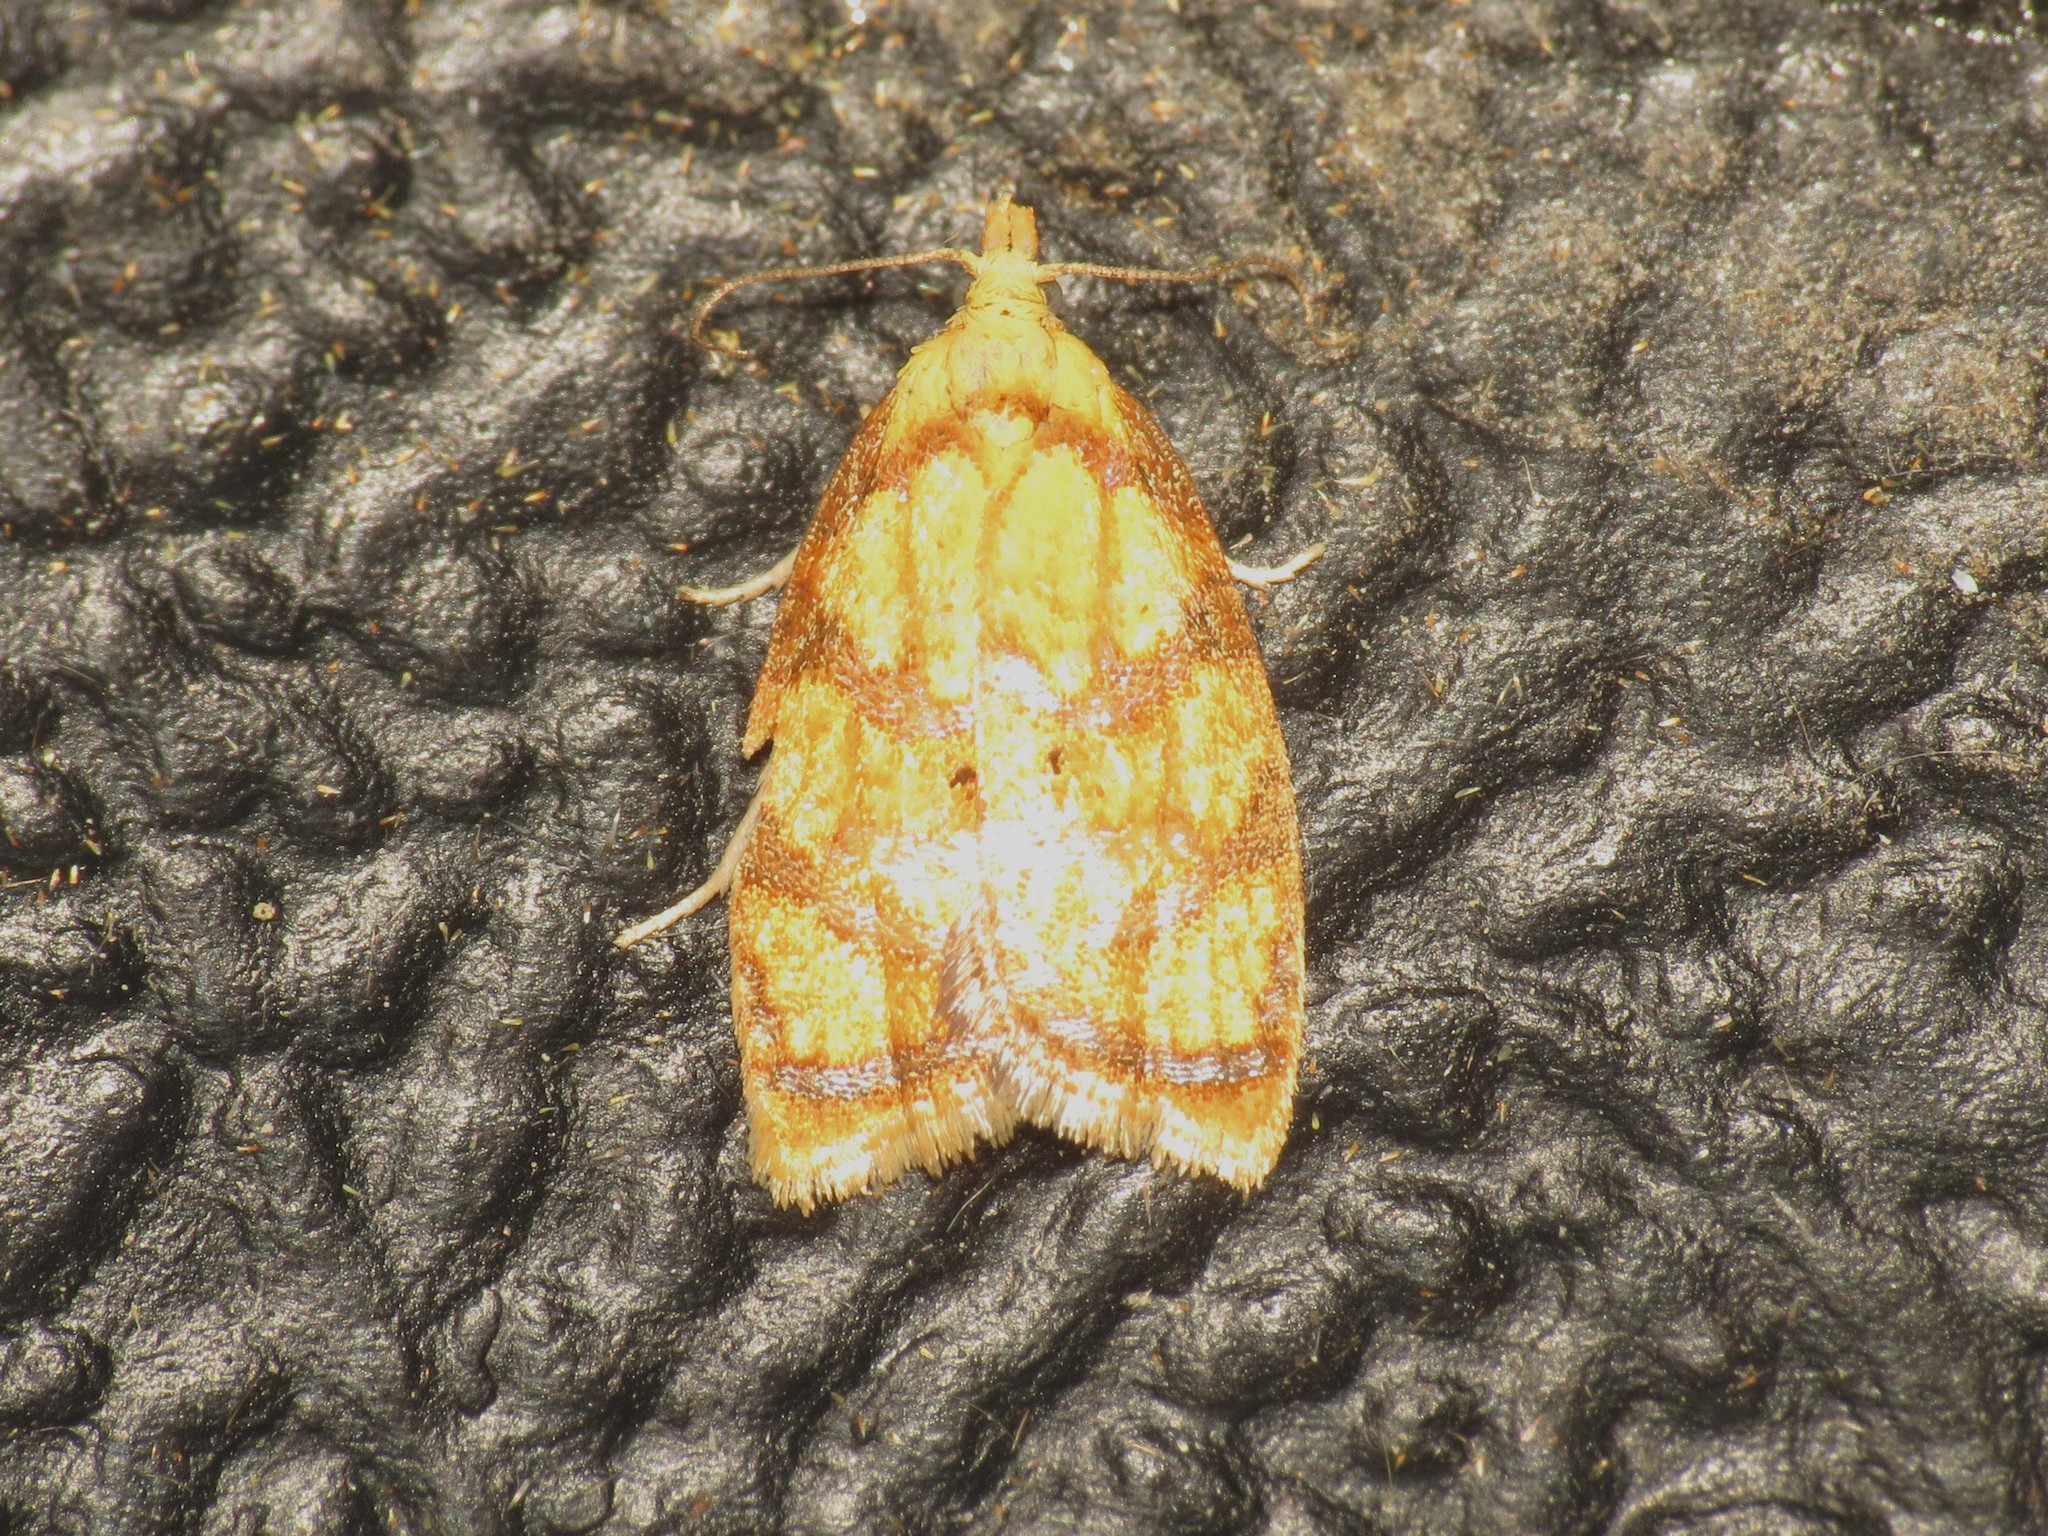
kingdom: Animalia
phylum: Arthropoda
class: Insecta
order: Lepidoptera
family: Tortricidae
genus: Acleris
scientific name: Acleris bergmanniana
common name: Yellow rose button
